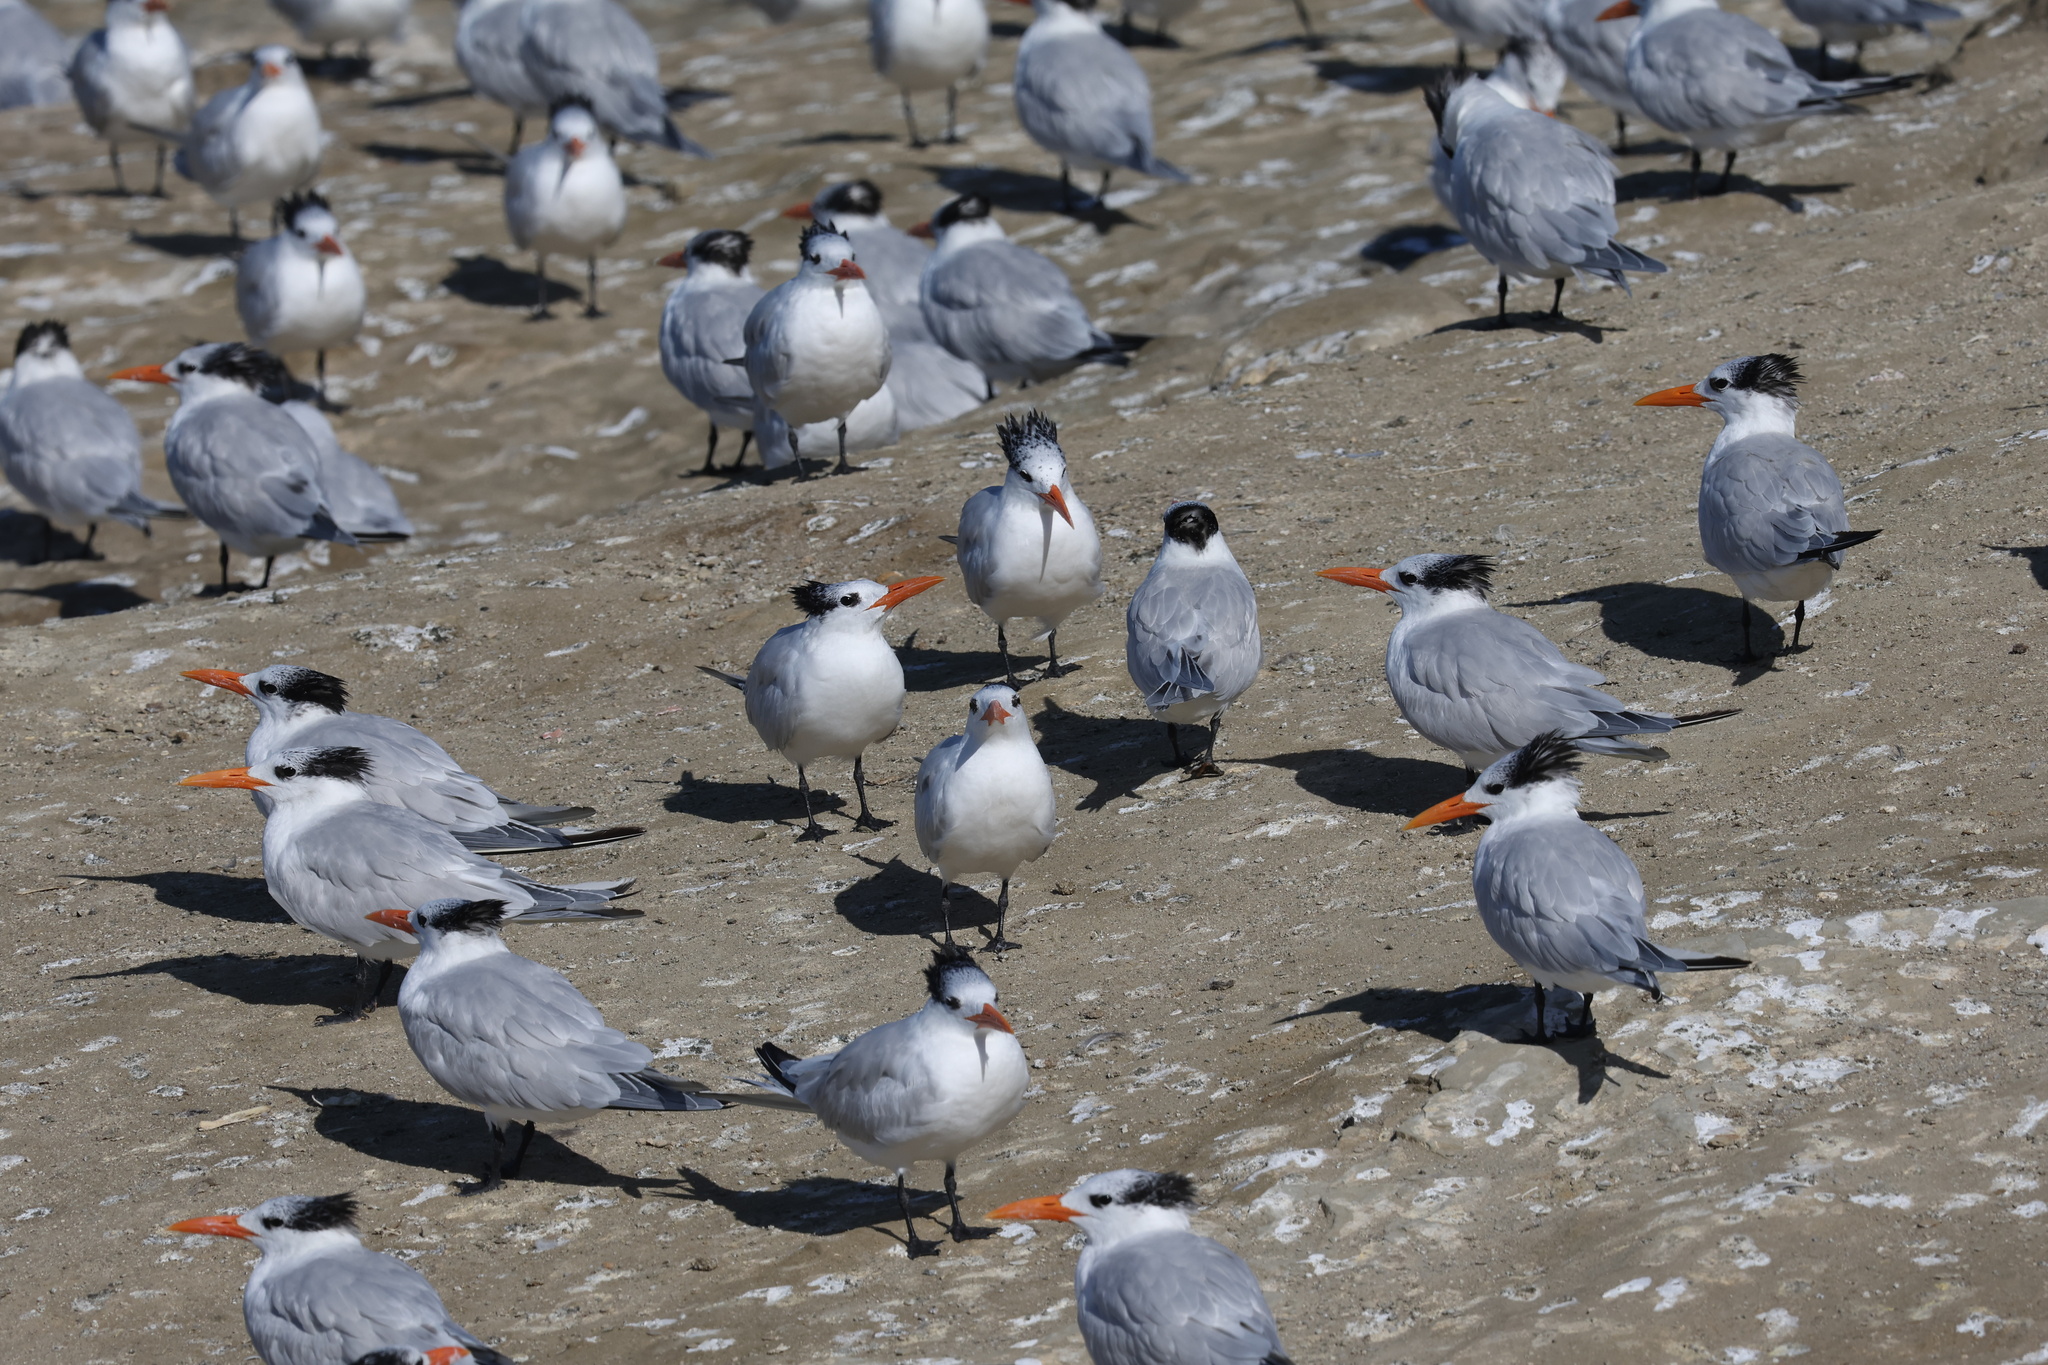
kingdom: Animalia
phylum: Chordata
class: Aves
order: Charadriiformes
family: Laridae
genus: Thalasseus
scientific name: Thalasseus maximus
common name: Royal tern
